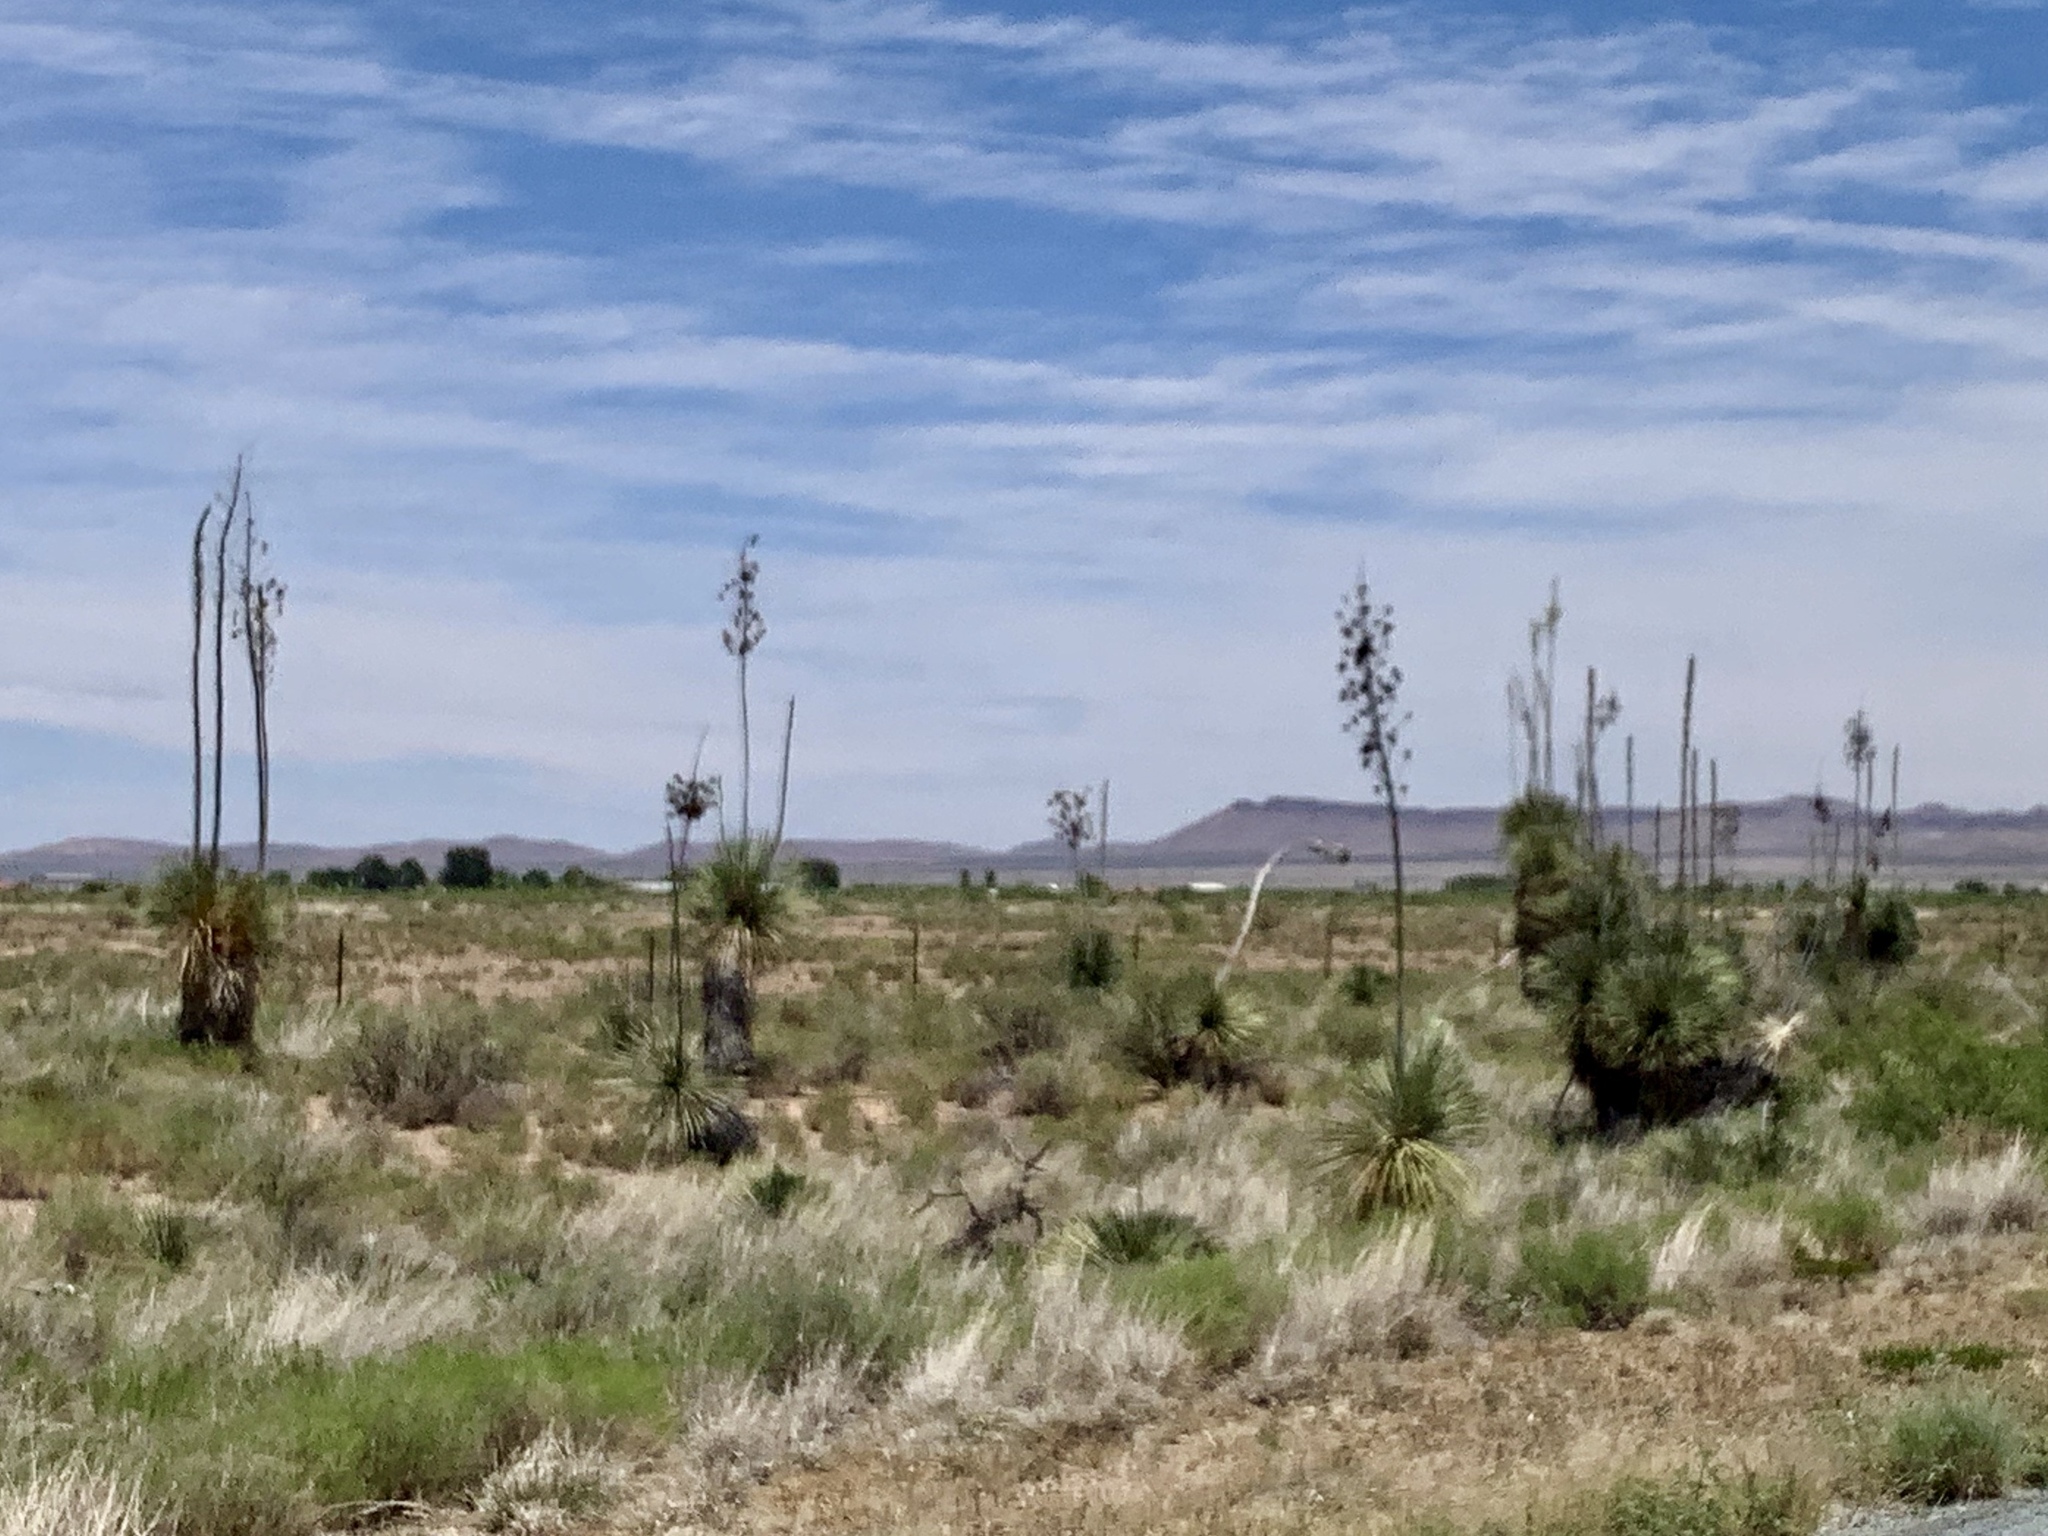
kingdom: Plantae
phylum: Tracheophyta
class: Liliopsida
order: Asparagales
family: Asparagaceae
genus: Yucca
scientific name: Yucca elata
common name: Palmella
